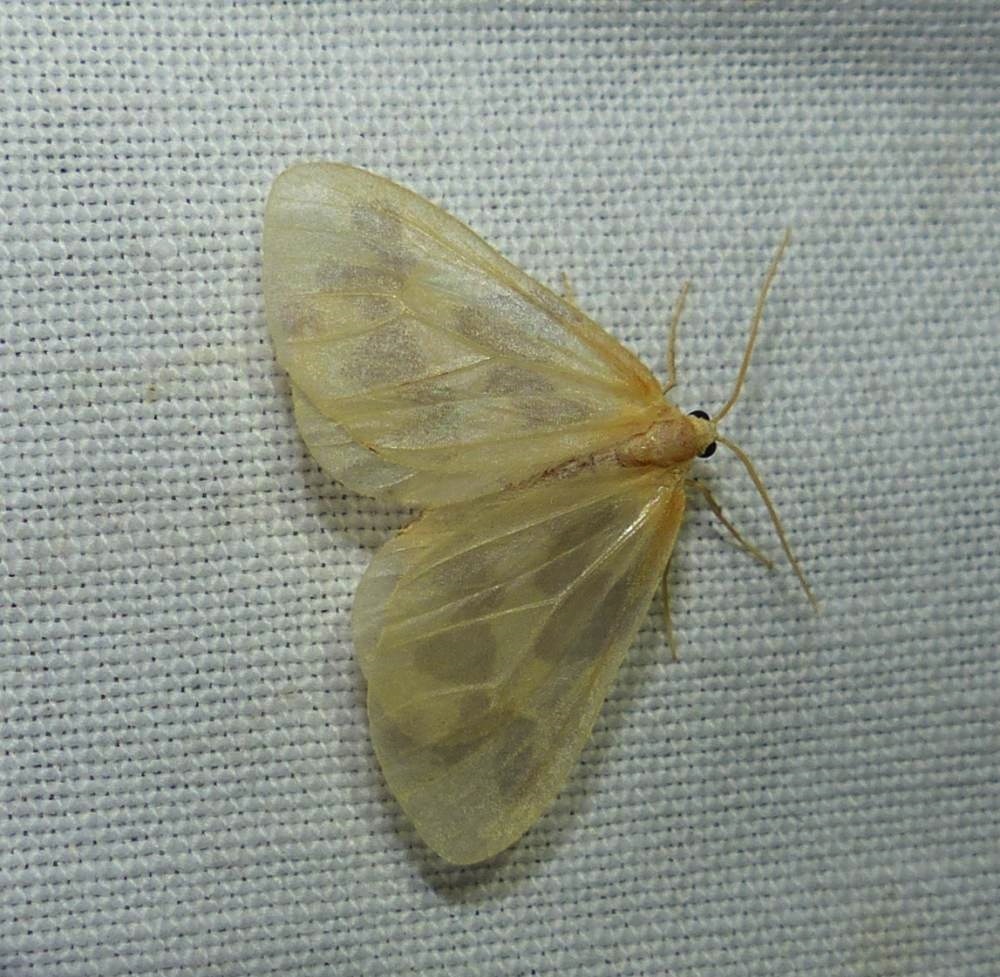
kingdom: Animalia
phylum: Arthropoda
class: Insecta
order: Lepidoptera
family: Geometridae
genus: Eubaphe
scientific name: Eubaphe mendica
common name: Beggar
